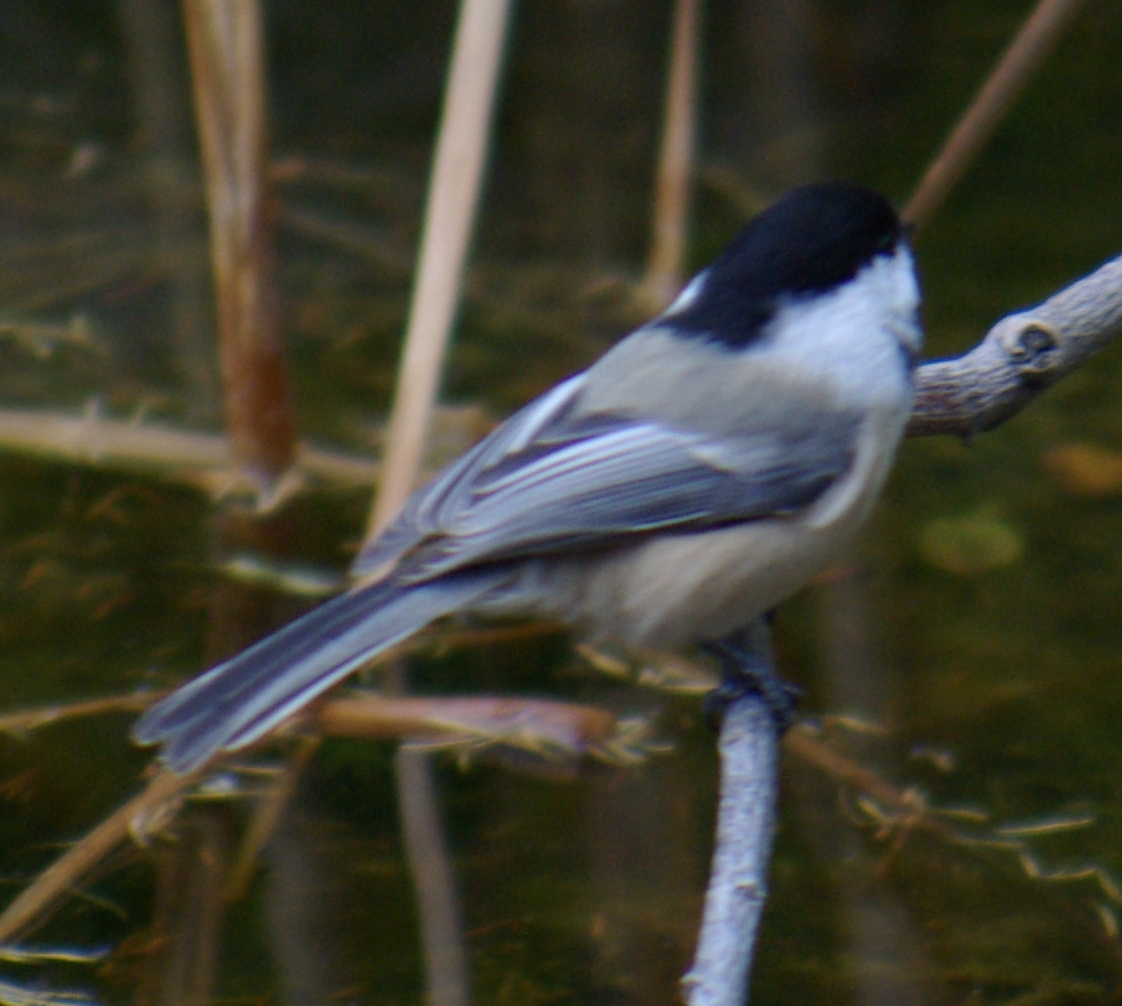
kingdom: Animalia
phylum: Chordata
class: Aves
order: Passeriformes
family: Paridae
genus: Poecile
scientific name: Poecile atricapillus
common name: Black-capped chickadee
